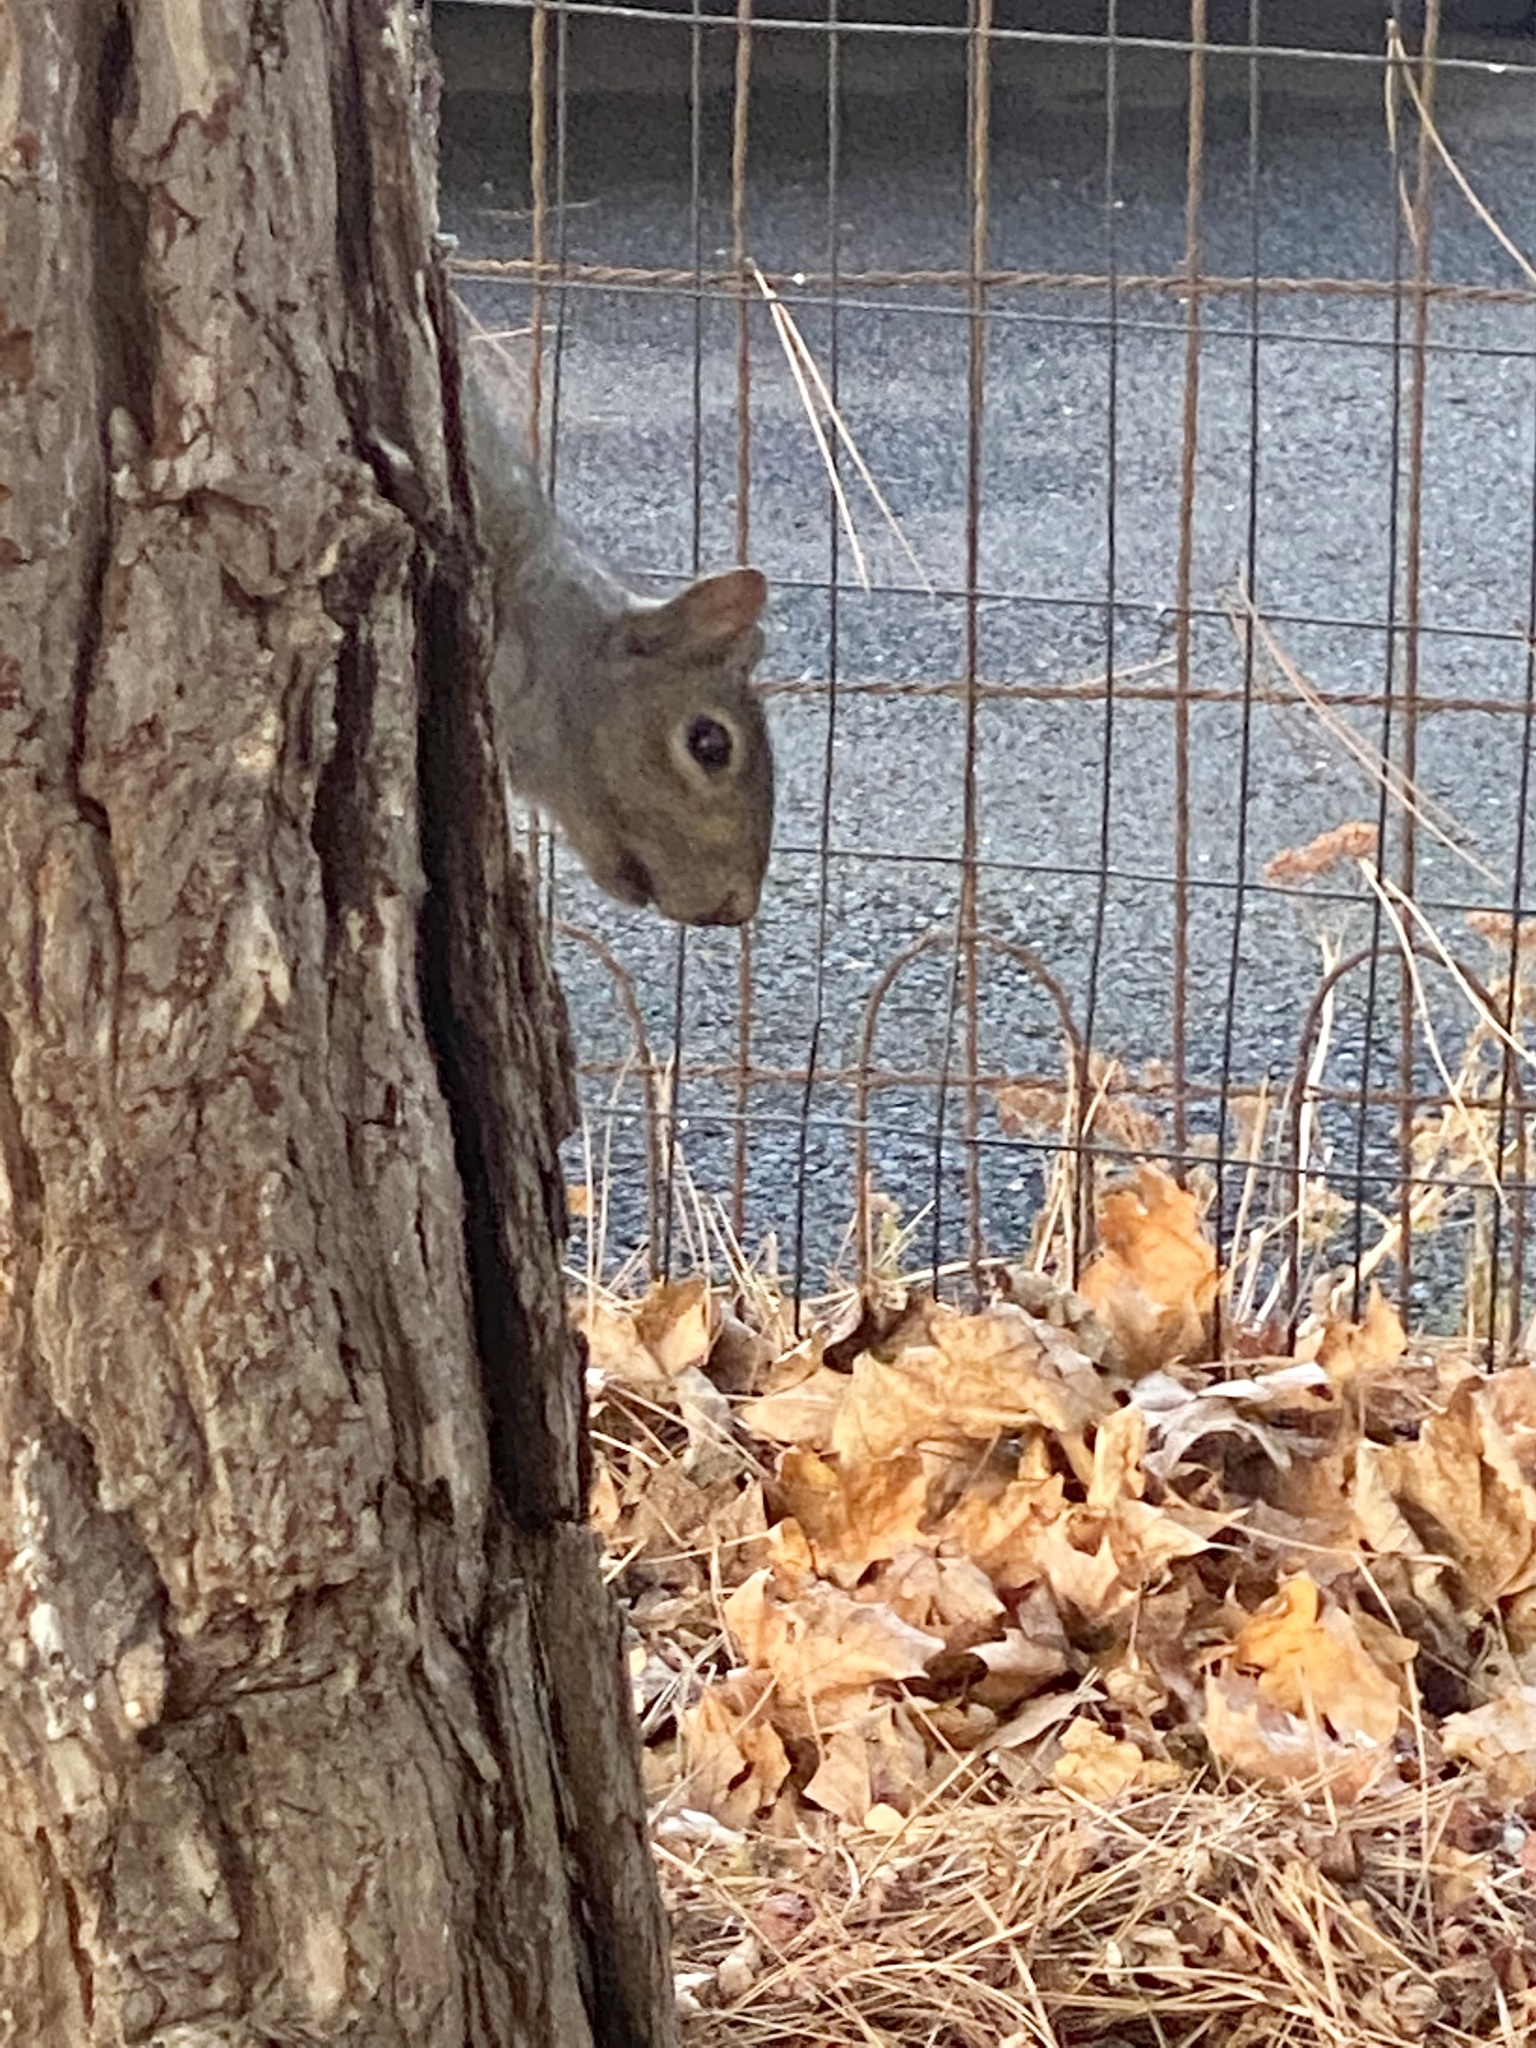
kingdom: Animalia
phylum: Chordata
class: Mammalia
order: Rodentia
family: Sciuridae
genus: Sciurus
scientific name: Sciurus carolinensis
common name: Eastern gray squirrel
